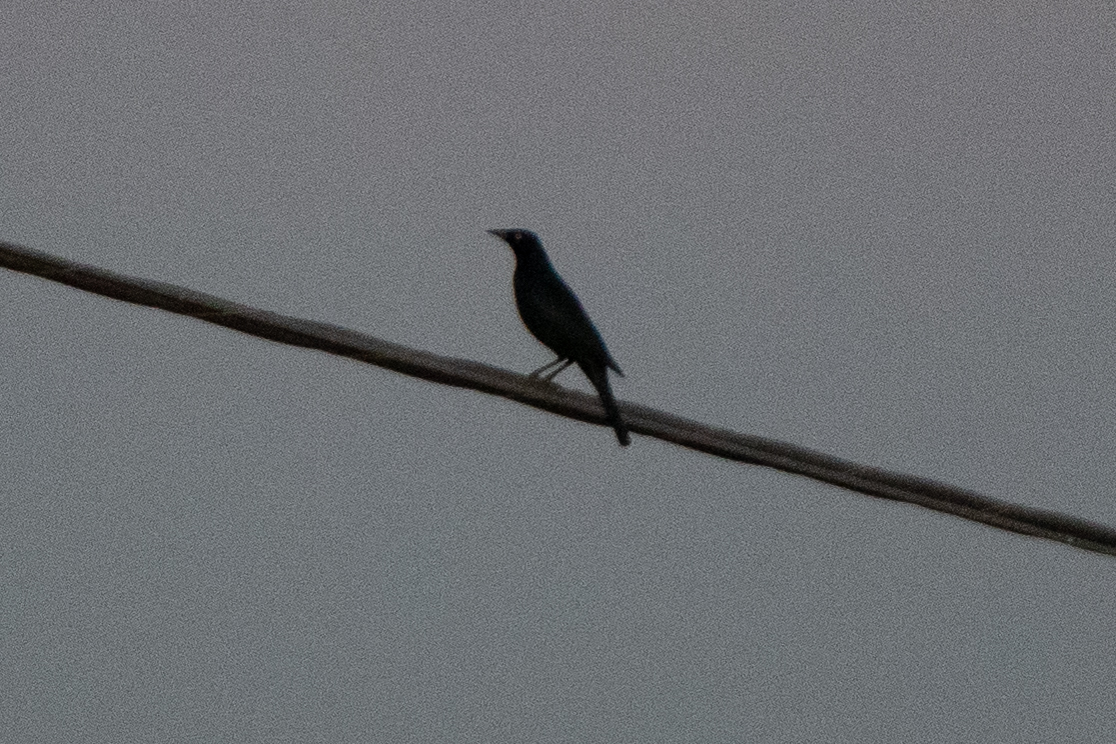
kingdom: Animalia
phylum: Chordata
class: Aves
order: Passeriformes
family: Icteridae
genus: Quiscalus
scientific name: Quiscalus mexicanus
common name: Great-tailed grackle
